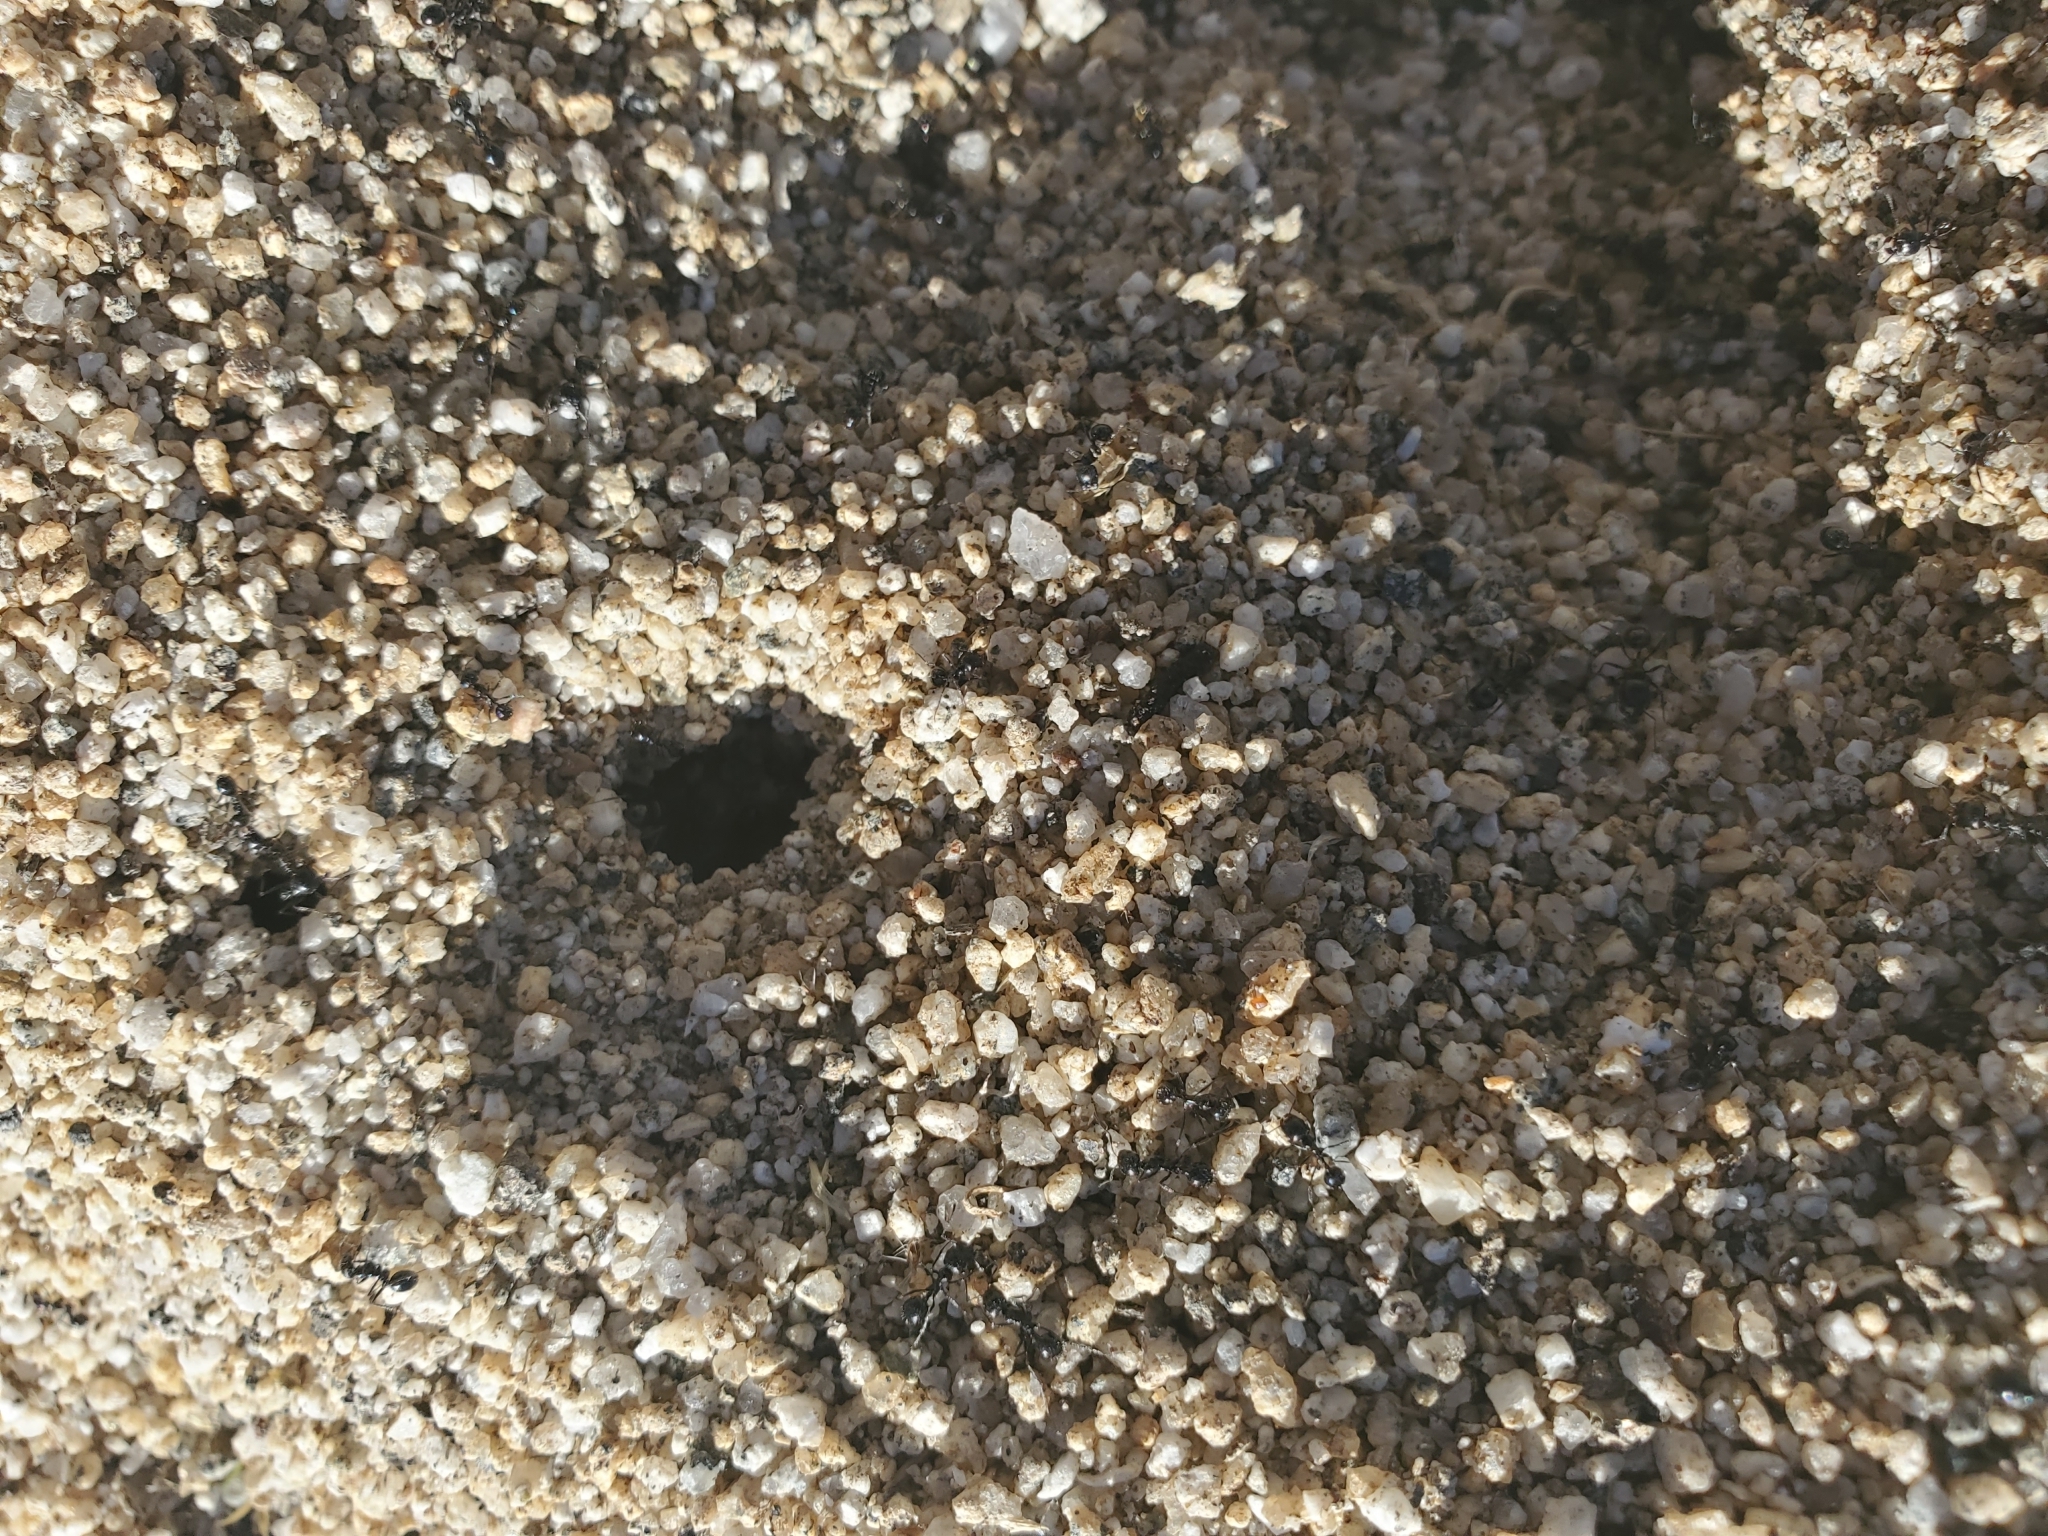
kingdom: Animalia
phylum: Arthropoda
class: Insecta
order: Hymenoptera
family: Formicidae
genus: Messor
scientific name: Messor pergandei
